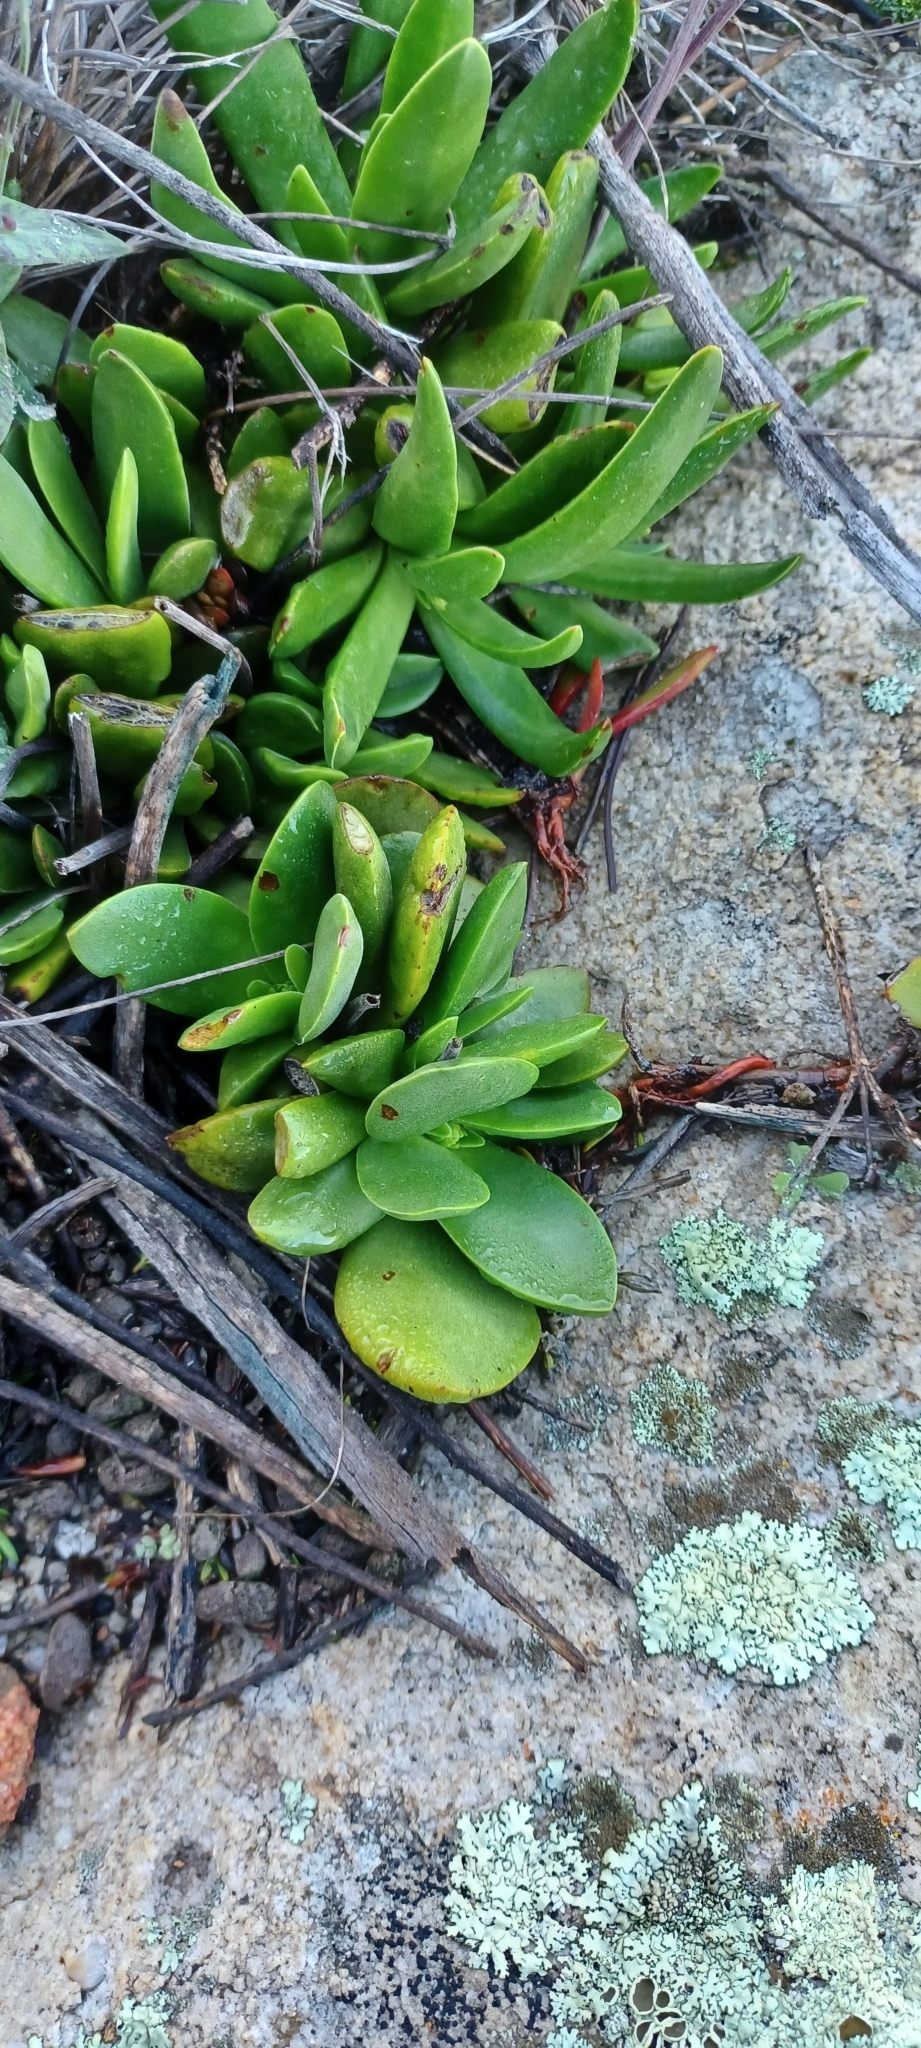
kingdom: Plantae
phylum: Tracheophyta
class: Magnoliopsida
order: Saxifragales
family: Crassulaceae
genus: Crassula
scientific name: Crassula nudicaulis
